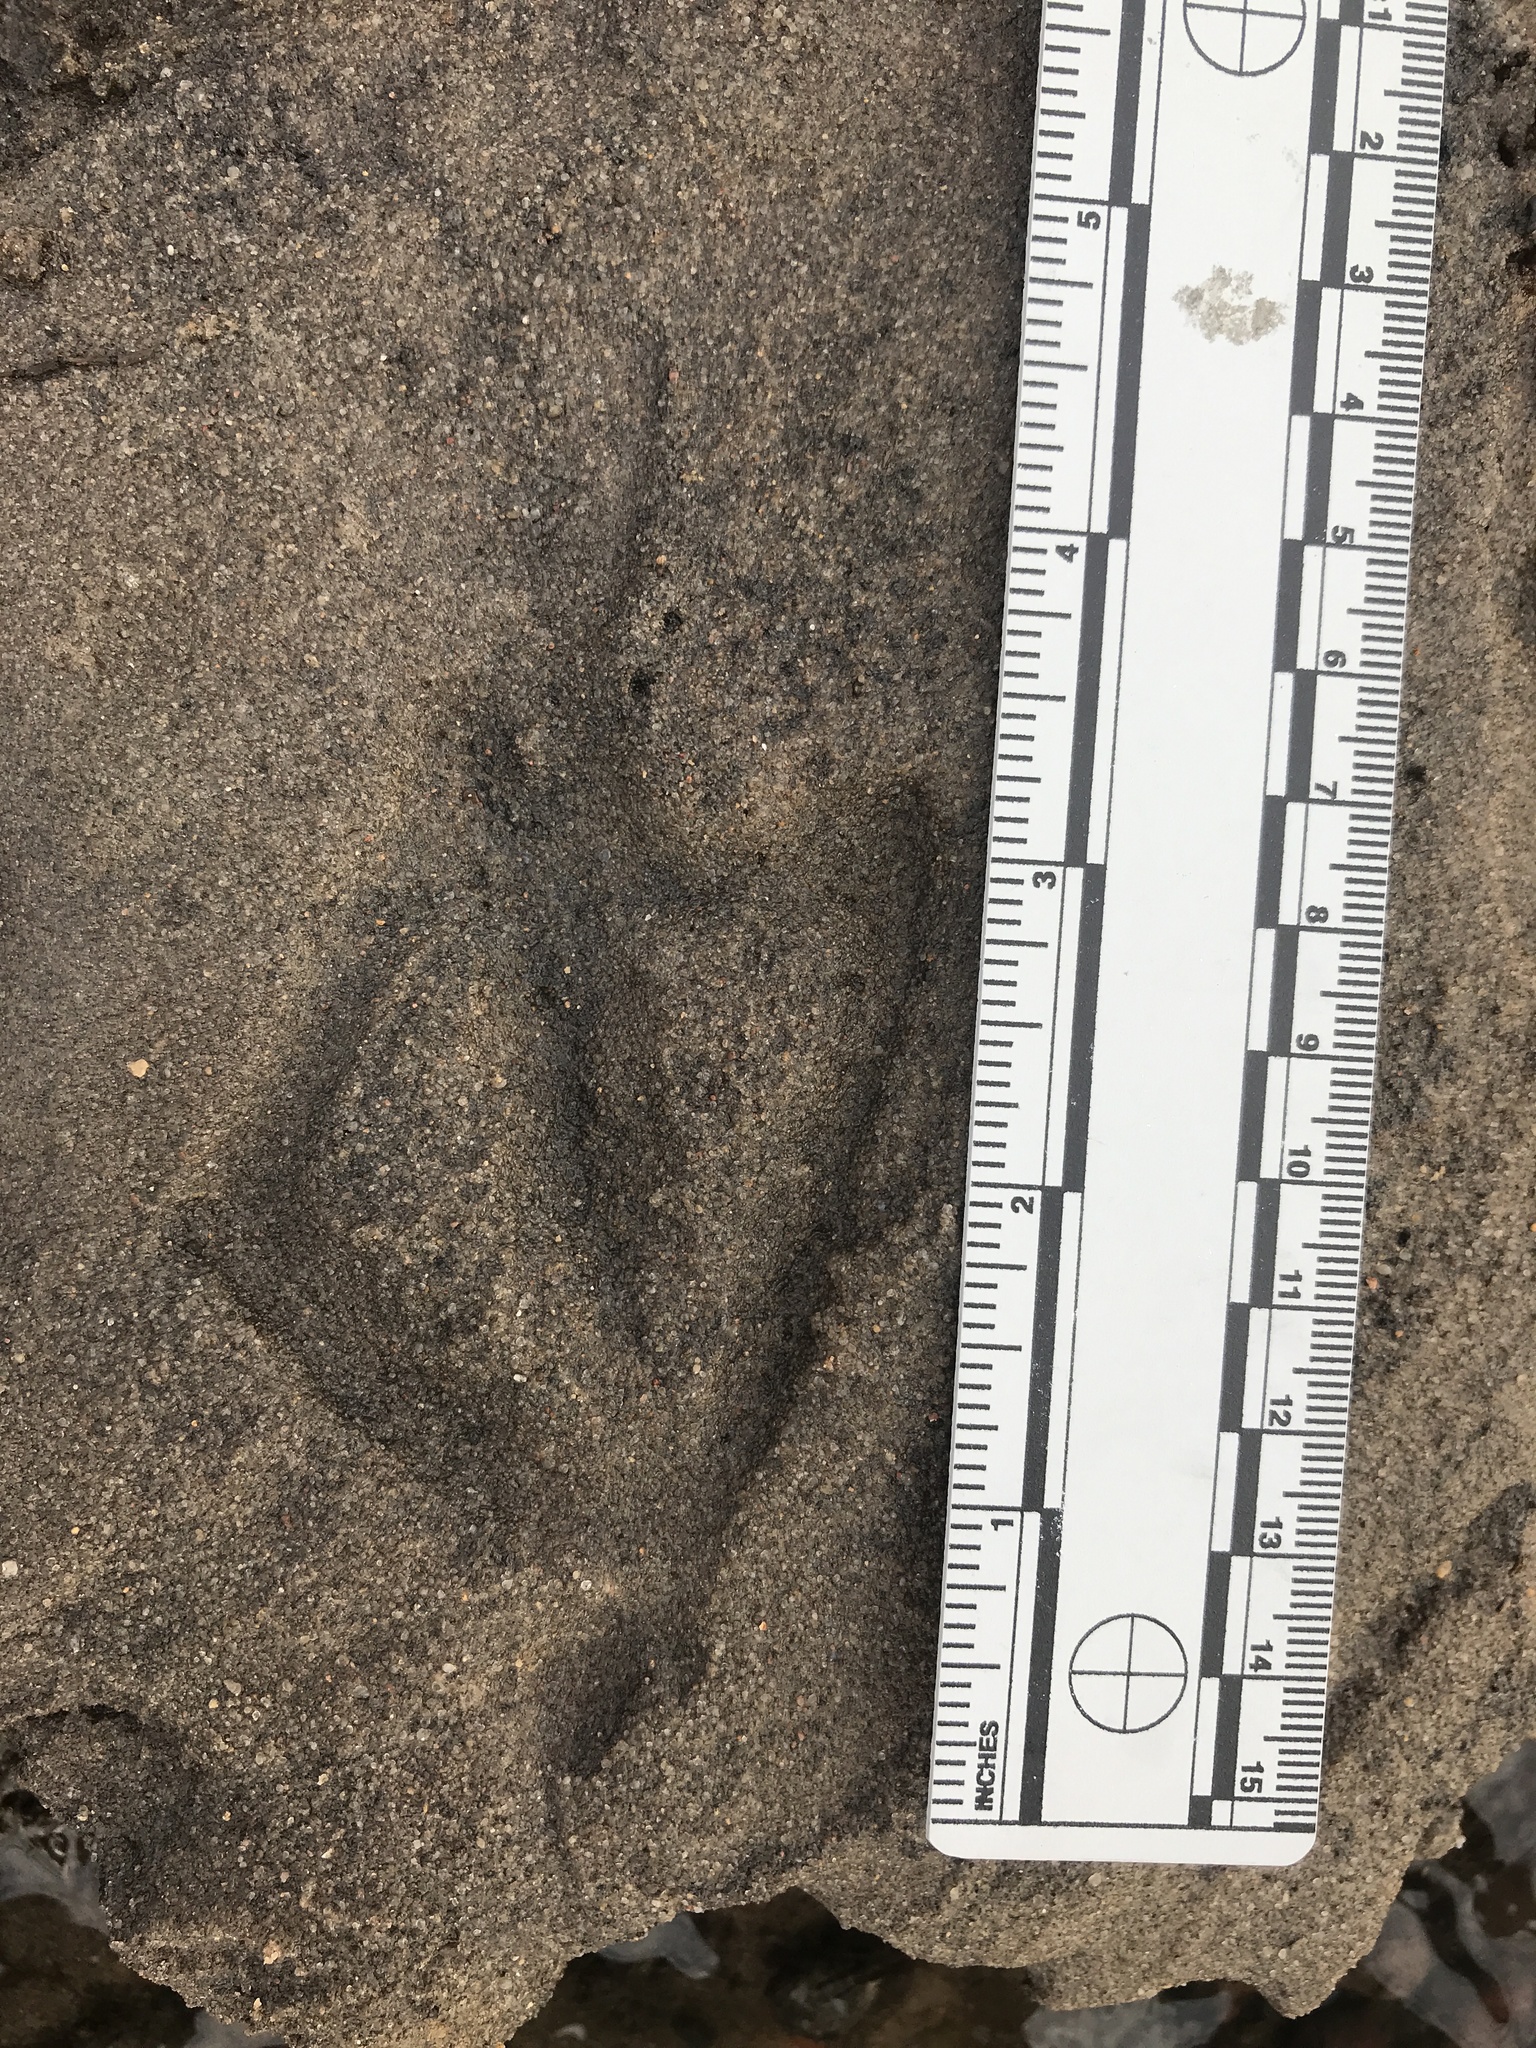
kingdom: Animalia
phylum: Chordata
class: Aves
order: Anseriformes
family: Anatidae
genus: Anas
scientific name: Anas platyrhynchos
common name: Mallard
